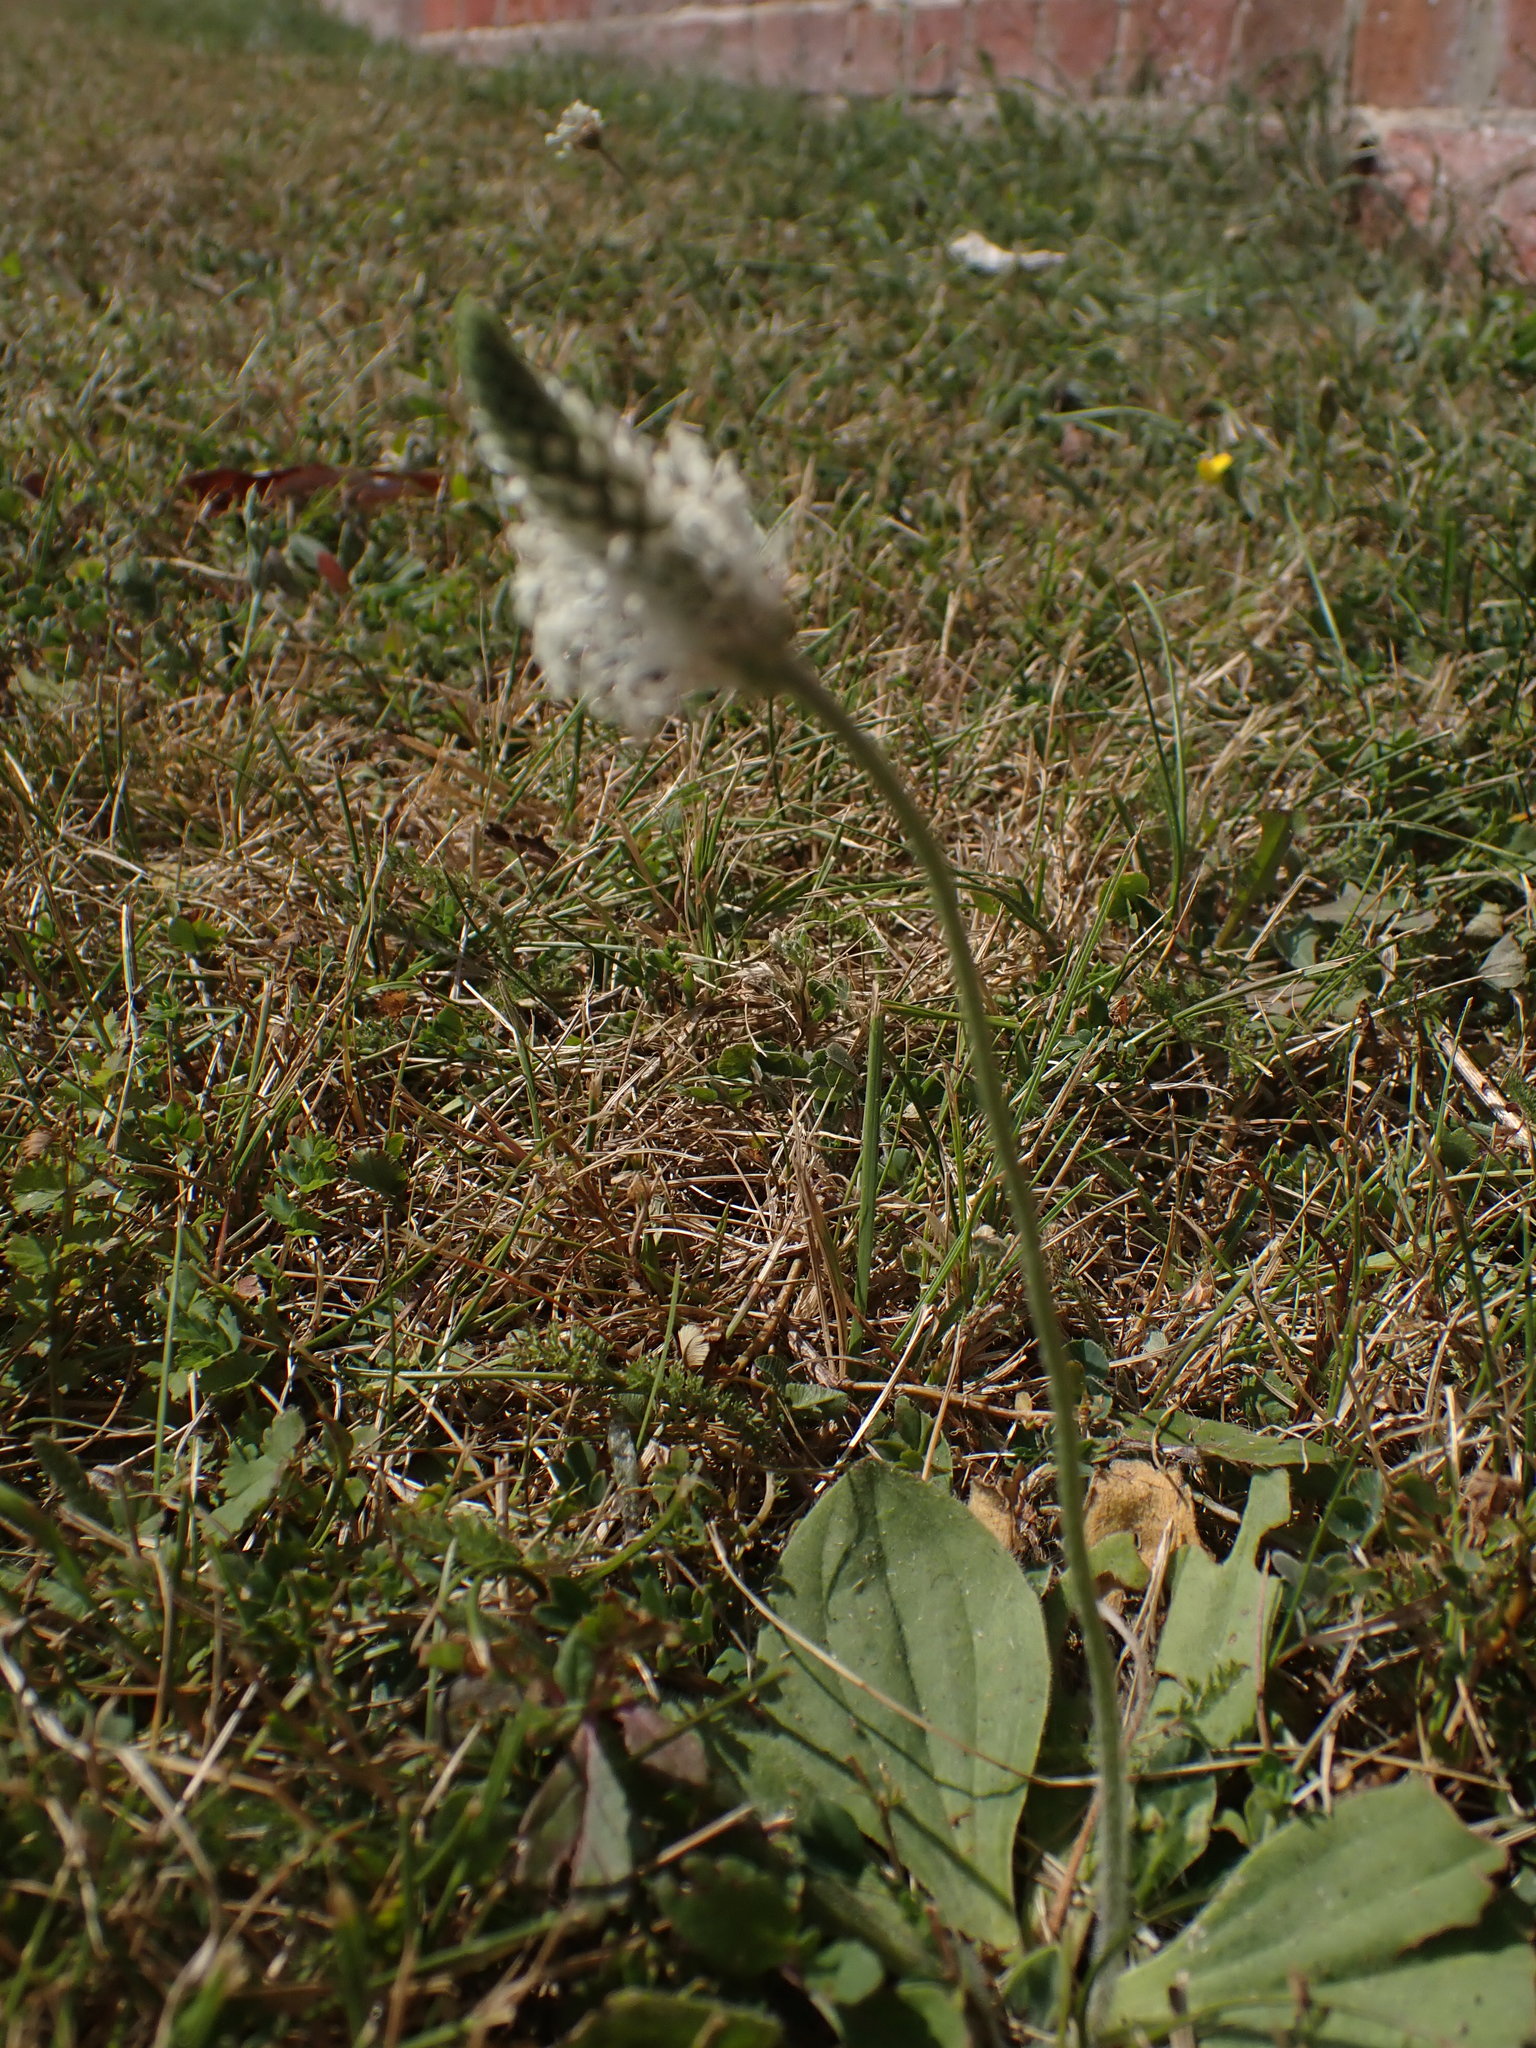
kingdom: Plantae
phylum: Tracheophyta
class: Magnoliopsida
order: Lamiales
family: Plantaginaceae
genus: Plantago
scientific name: Plantago media
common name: Hoary plantain
